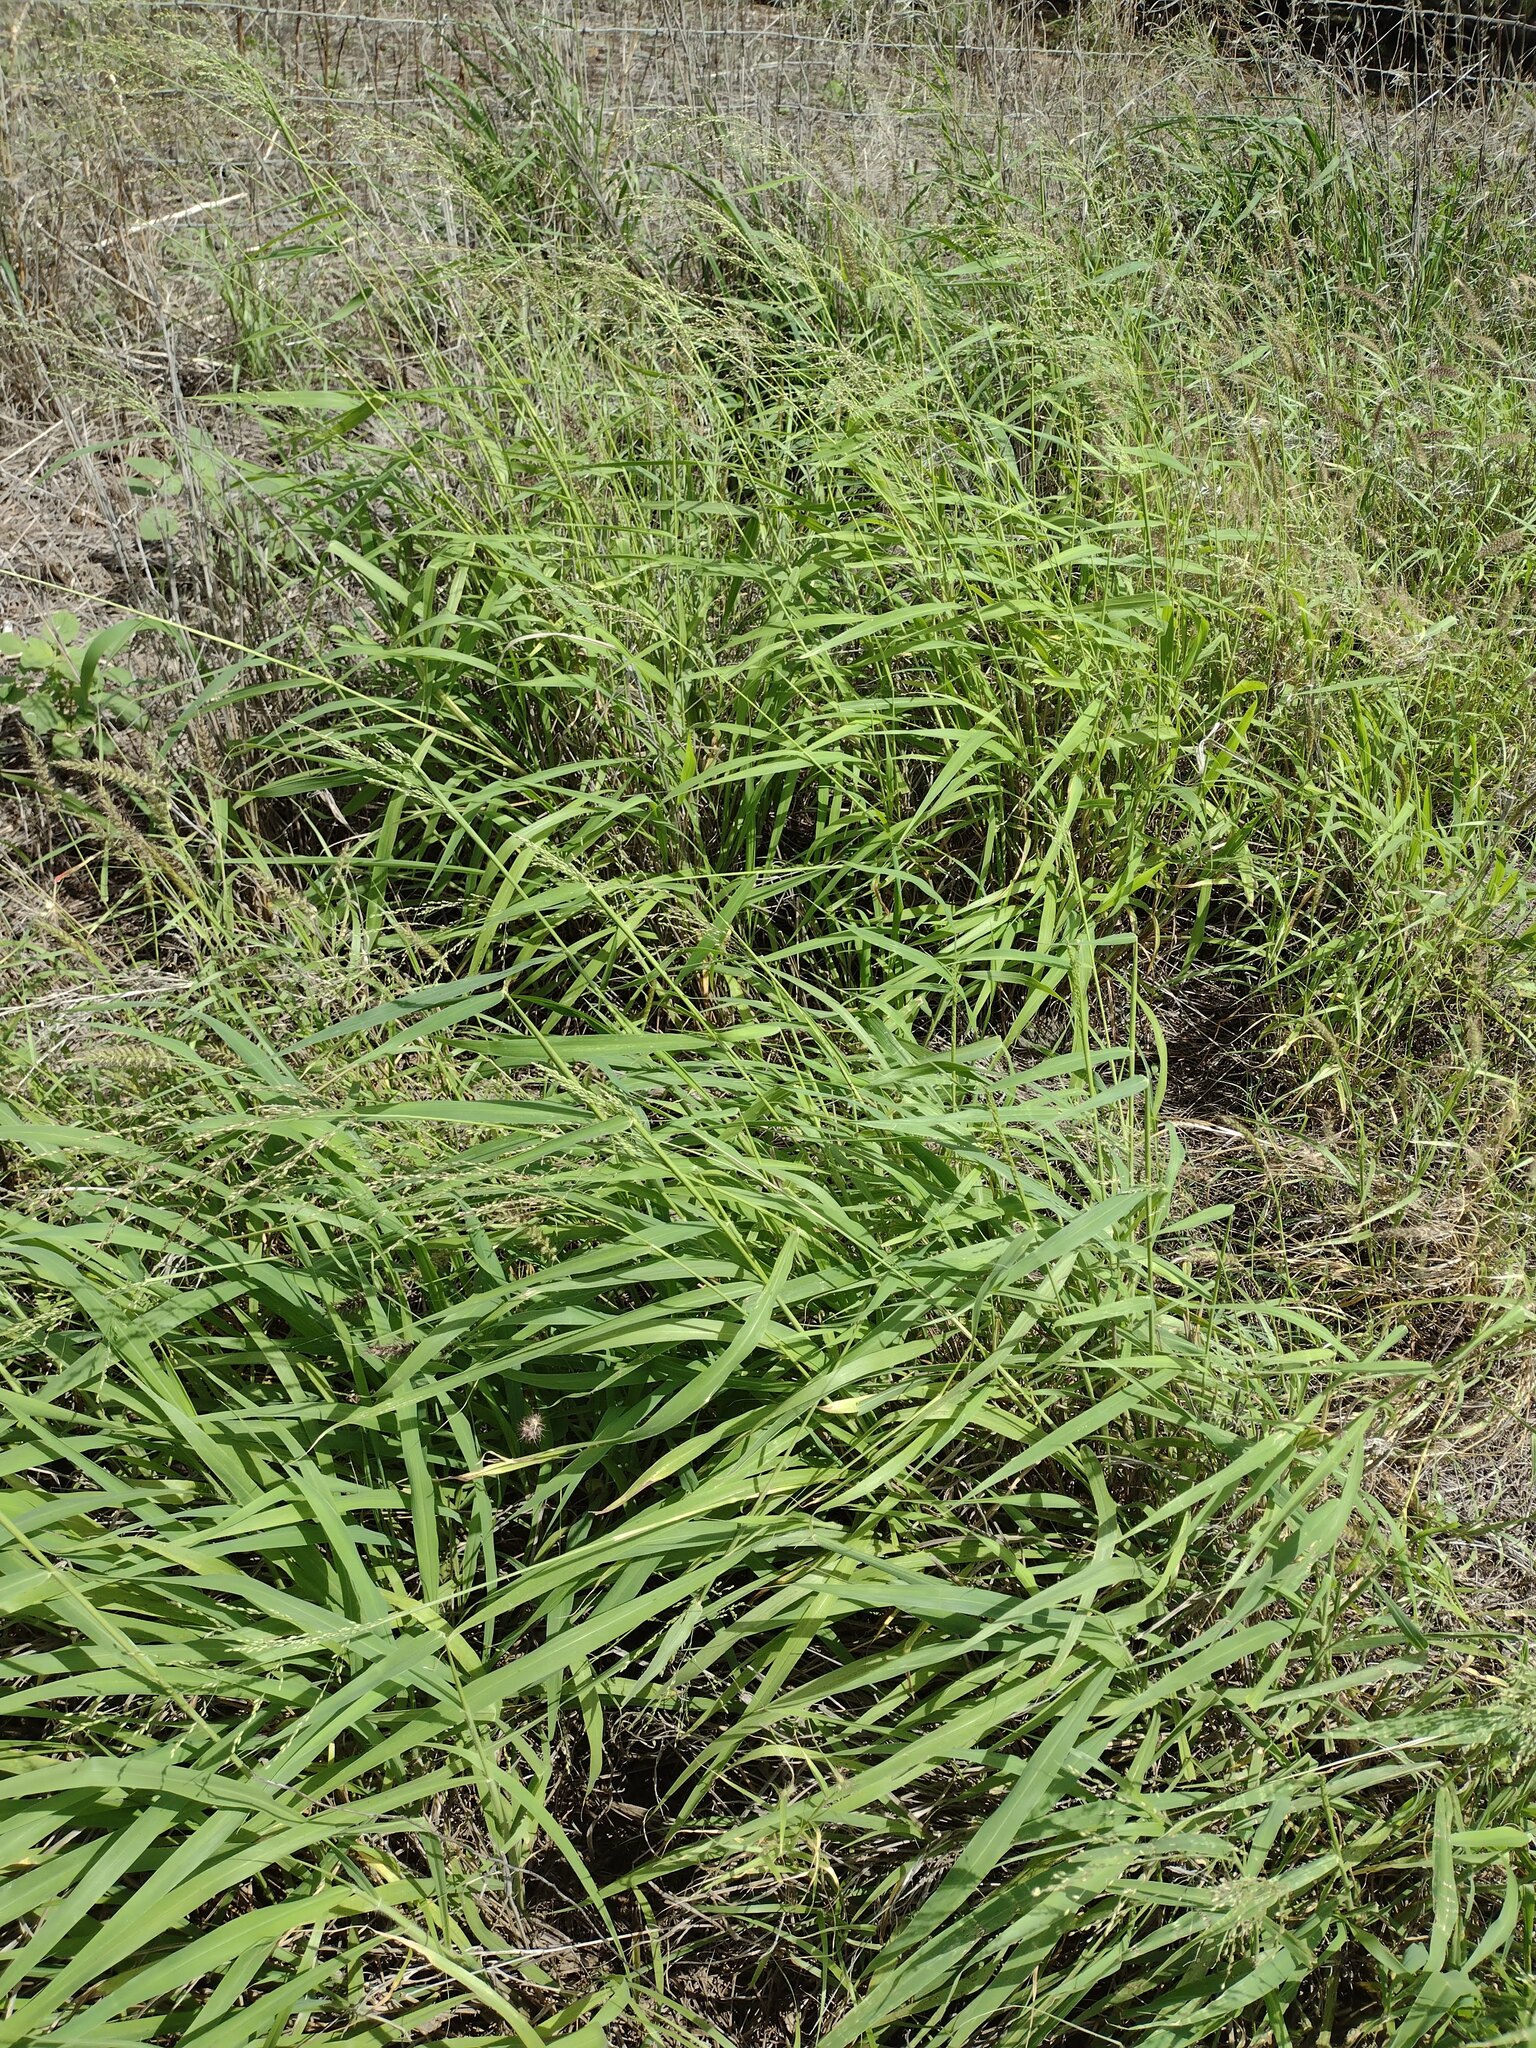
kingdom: Plantae
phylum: Tracheophyta
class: Liliopsida
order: Poales
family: Poaceae
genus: Megathyrsus
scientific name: Megathyrsus maximus
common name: Guineagrass
